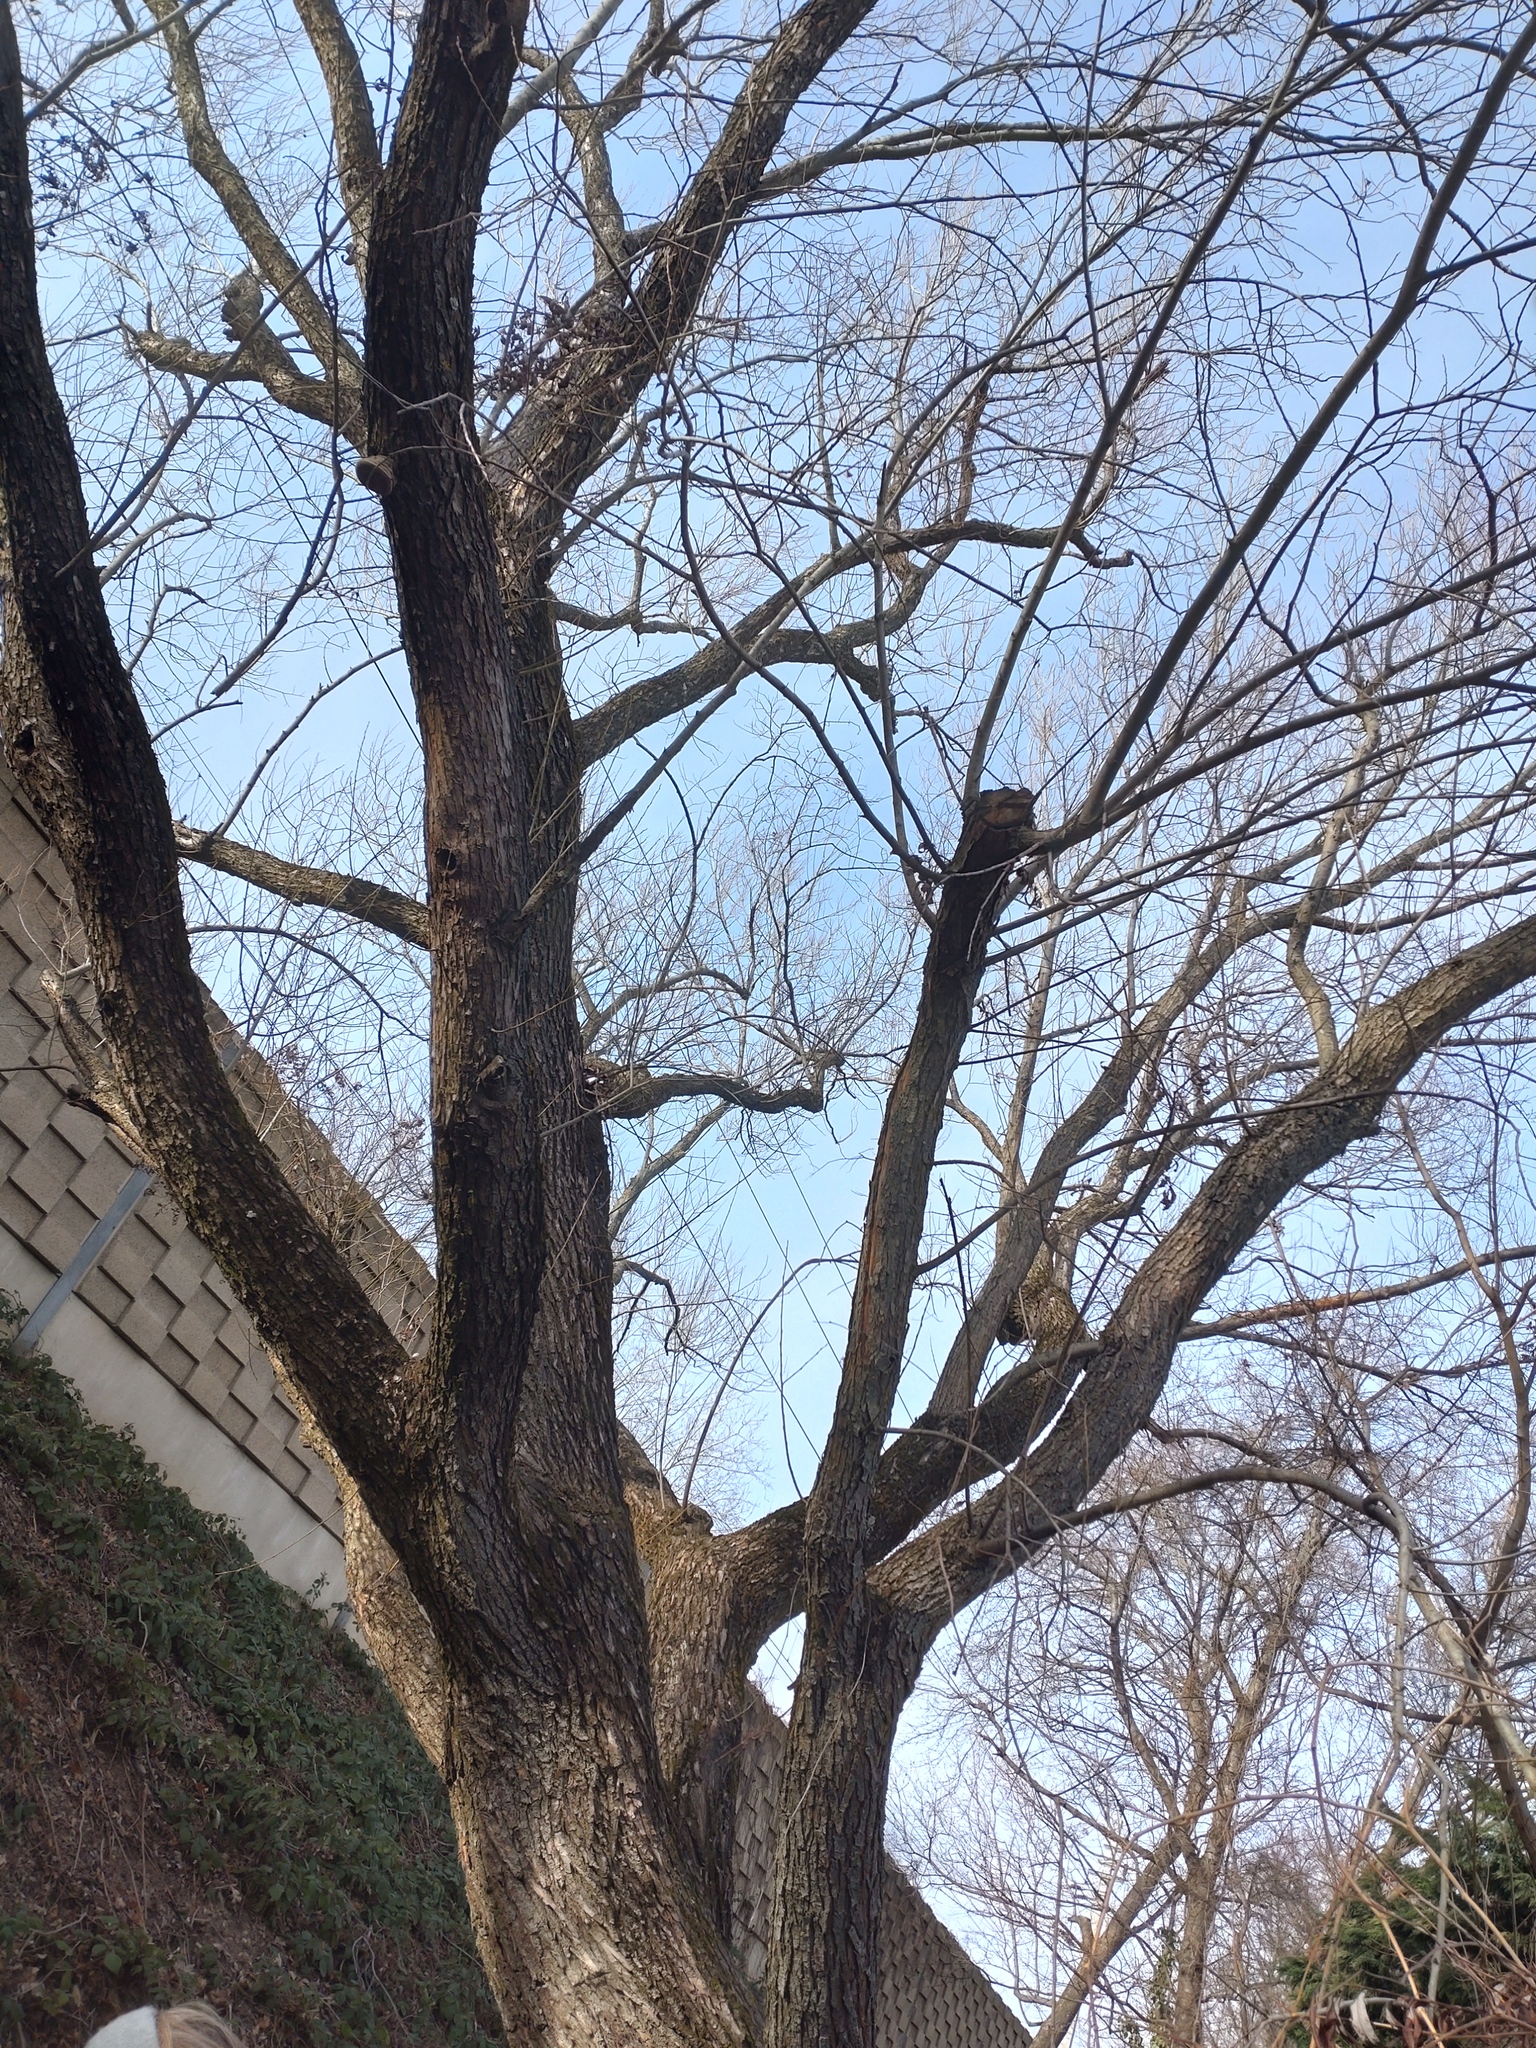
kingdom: Plantae
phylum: Tracheophyta
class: Magnoliopsida
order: Lamiales
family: Oleaceae
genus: Fraxinus
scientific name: Fraxinus excelsior
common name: European ash
